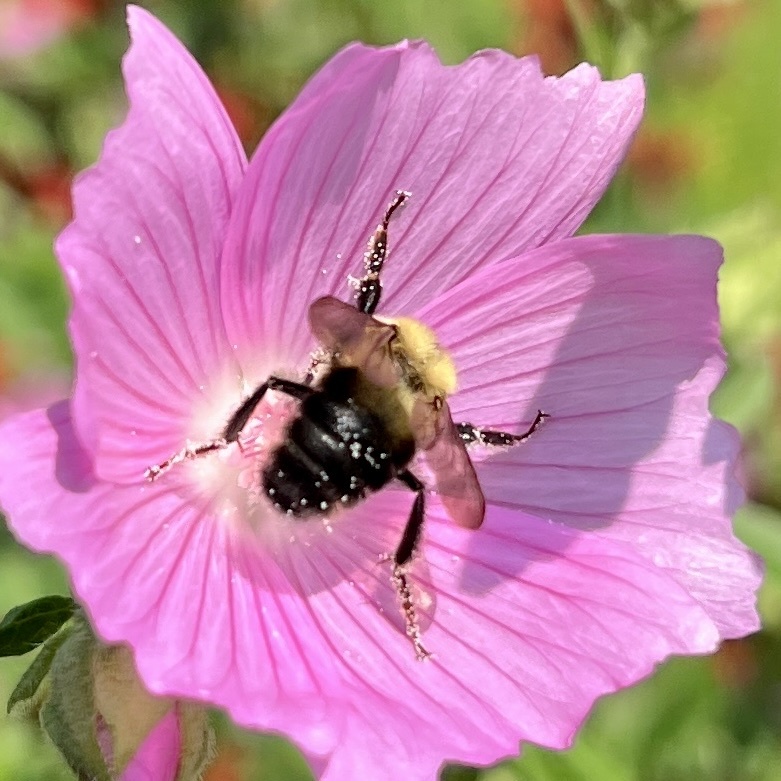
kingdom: Animalia
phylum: Arthropoda
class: Insecta
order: Hymenoptera
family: Apidae
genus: Bombus
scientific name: Bombus bimaculatus
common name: Two-spotted bumble bee
